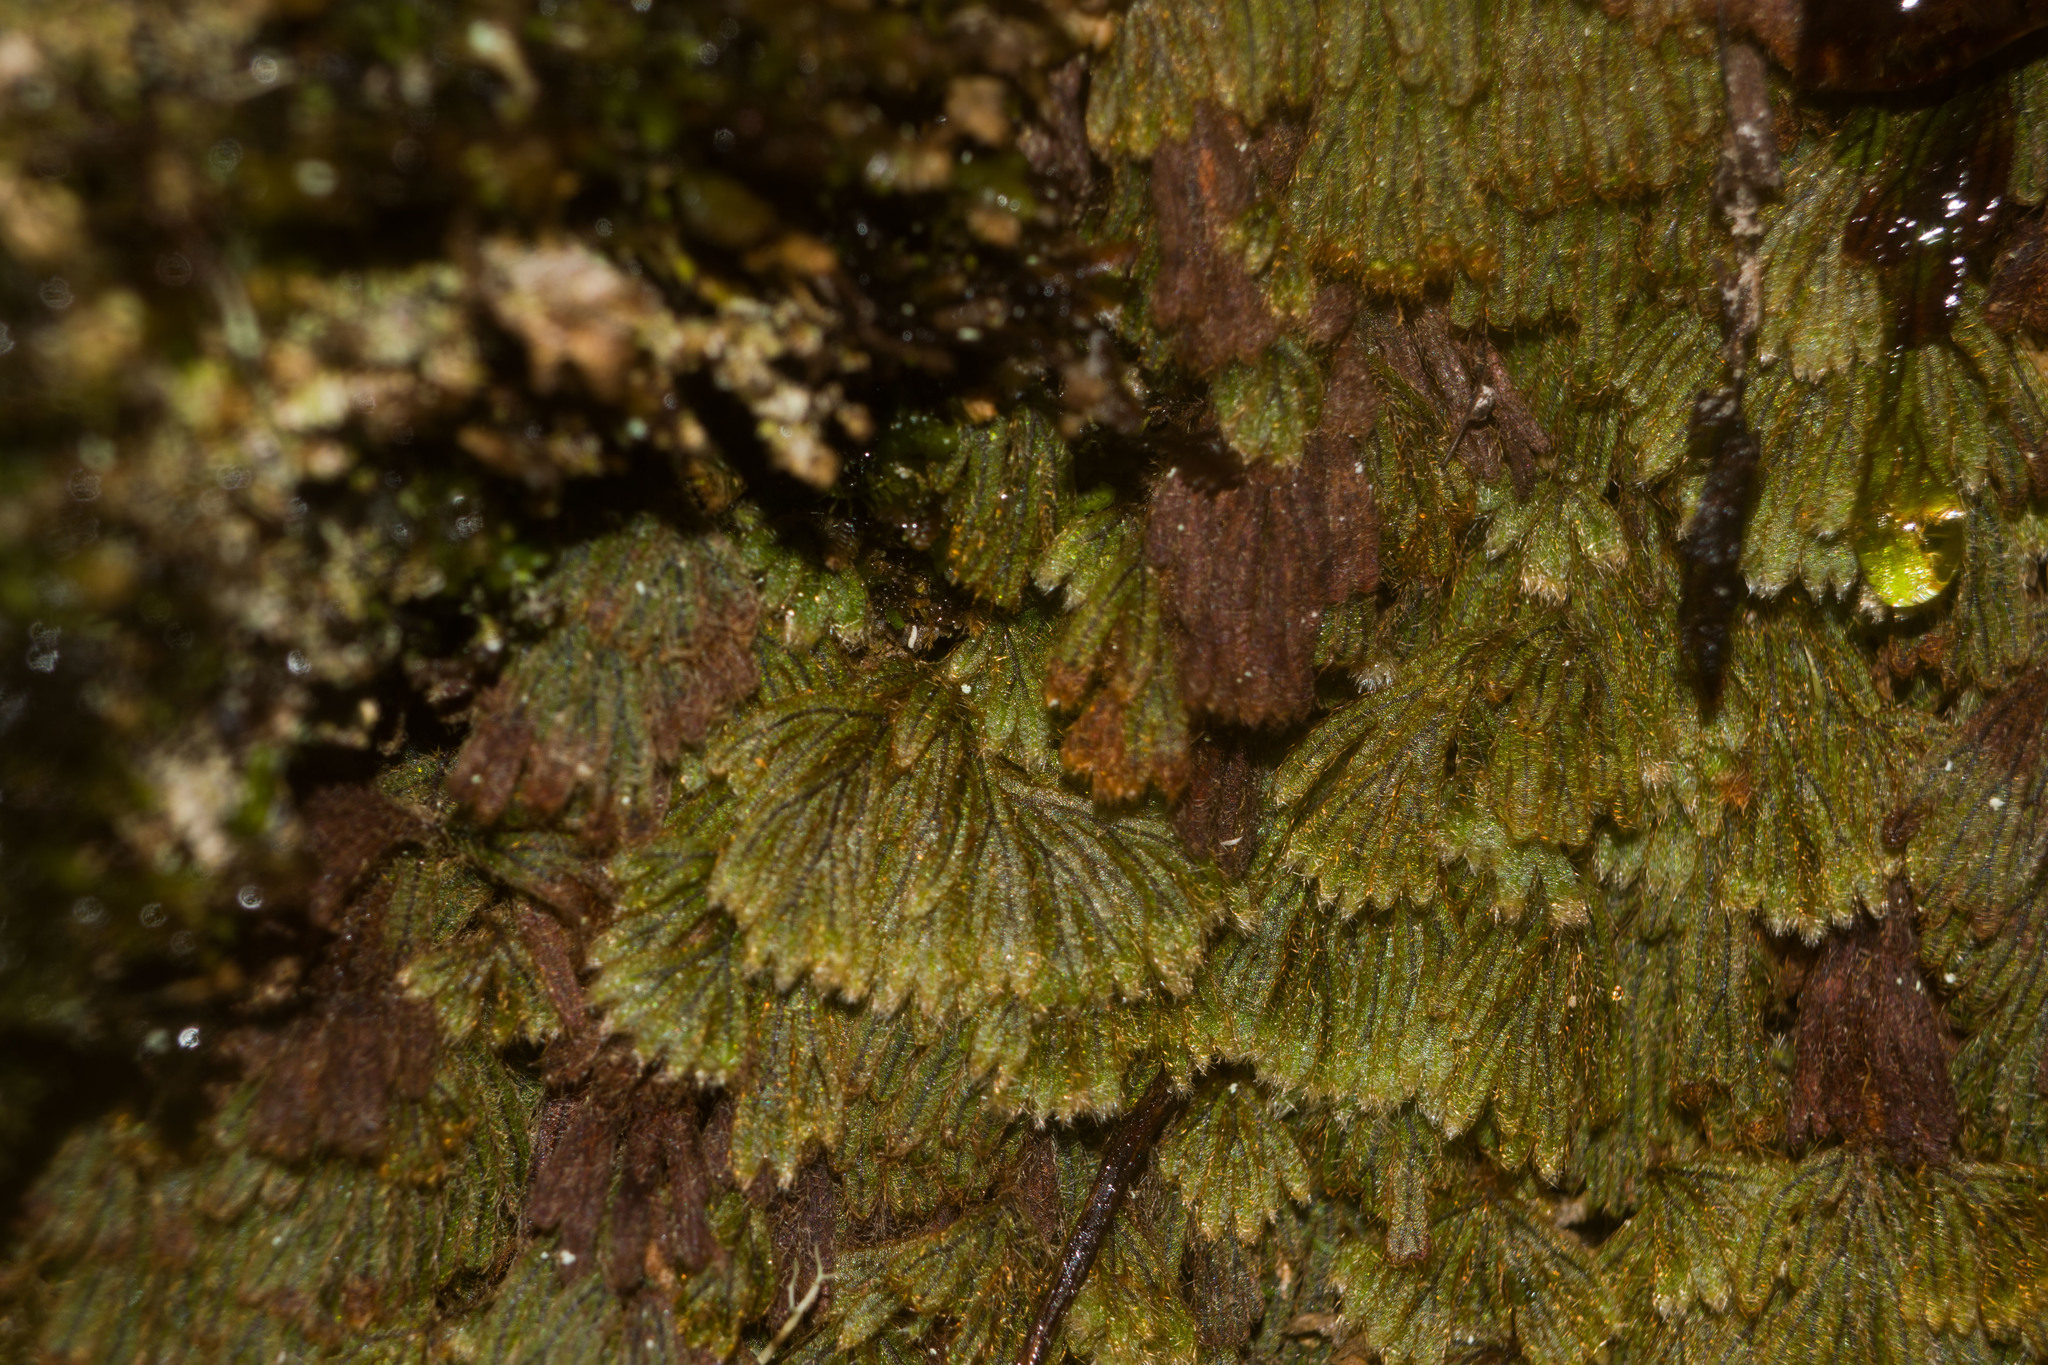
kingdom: Plantae
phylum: Tracheophyta
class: Polypodiopsida
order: Hymenophyllales
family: Hymenophyllaceae
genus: Hymenophyllum
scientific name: Hymenophyllum obtusum
